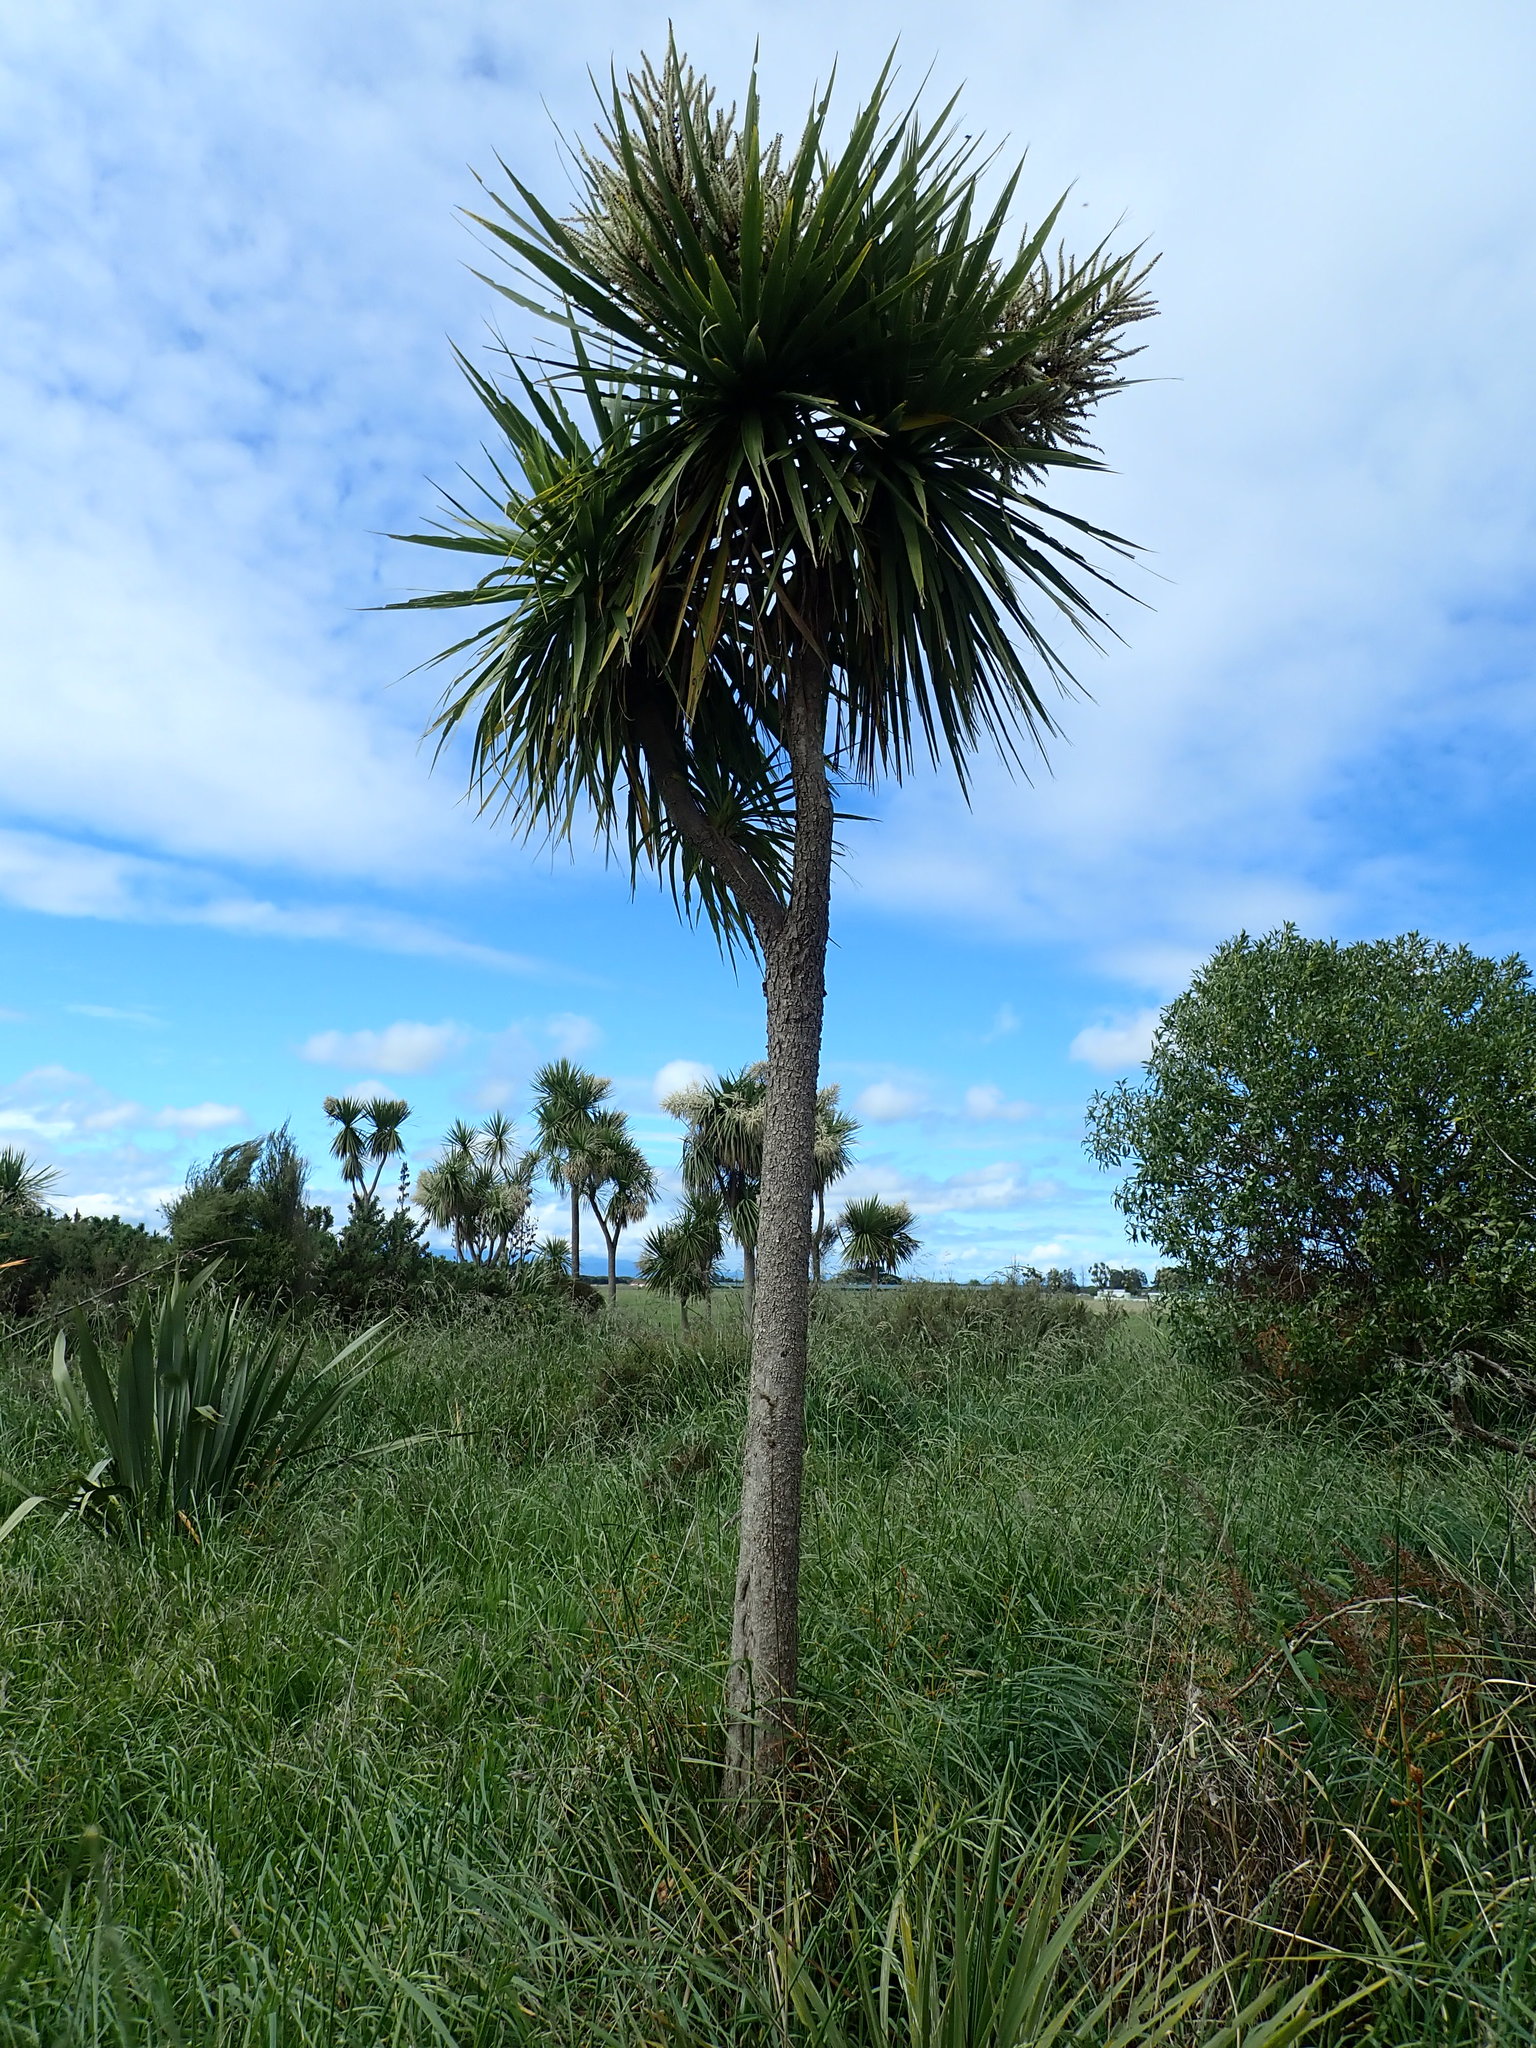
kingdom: Plantae
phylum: Tracheophyta
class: Liliopsida
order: Asparagales
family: Asparagaceae
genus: Cordyline
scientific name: Cordyline australis
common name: Cabbage-palm
